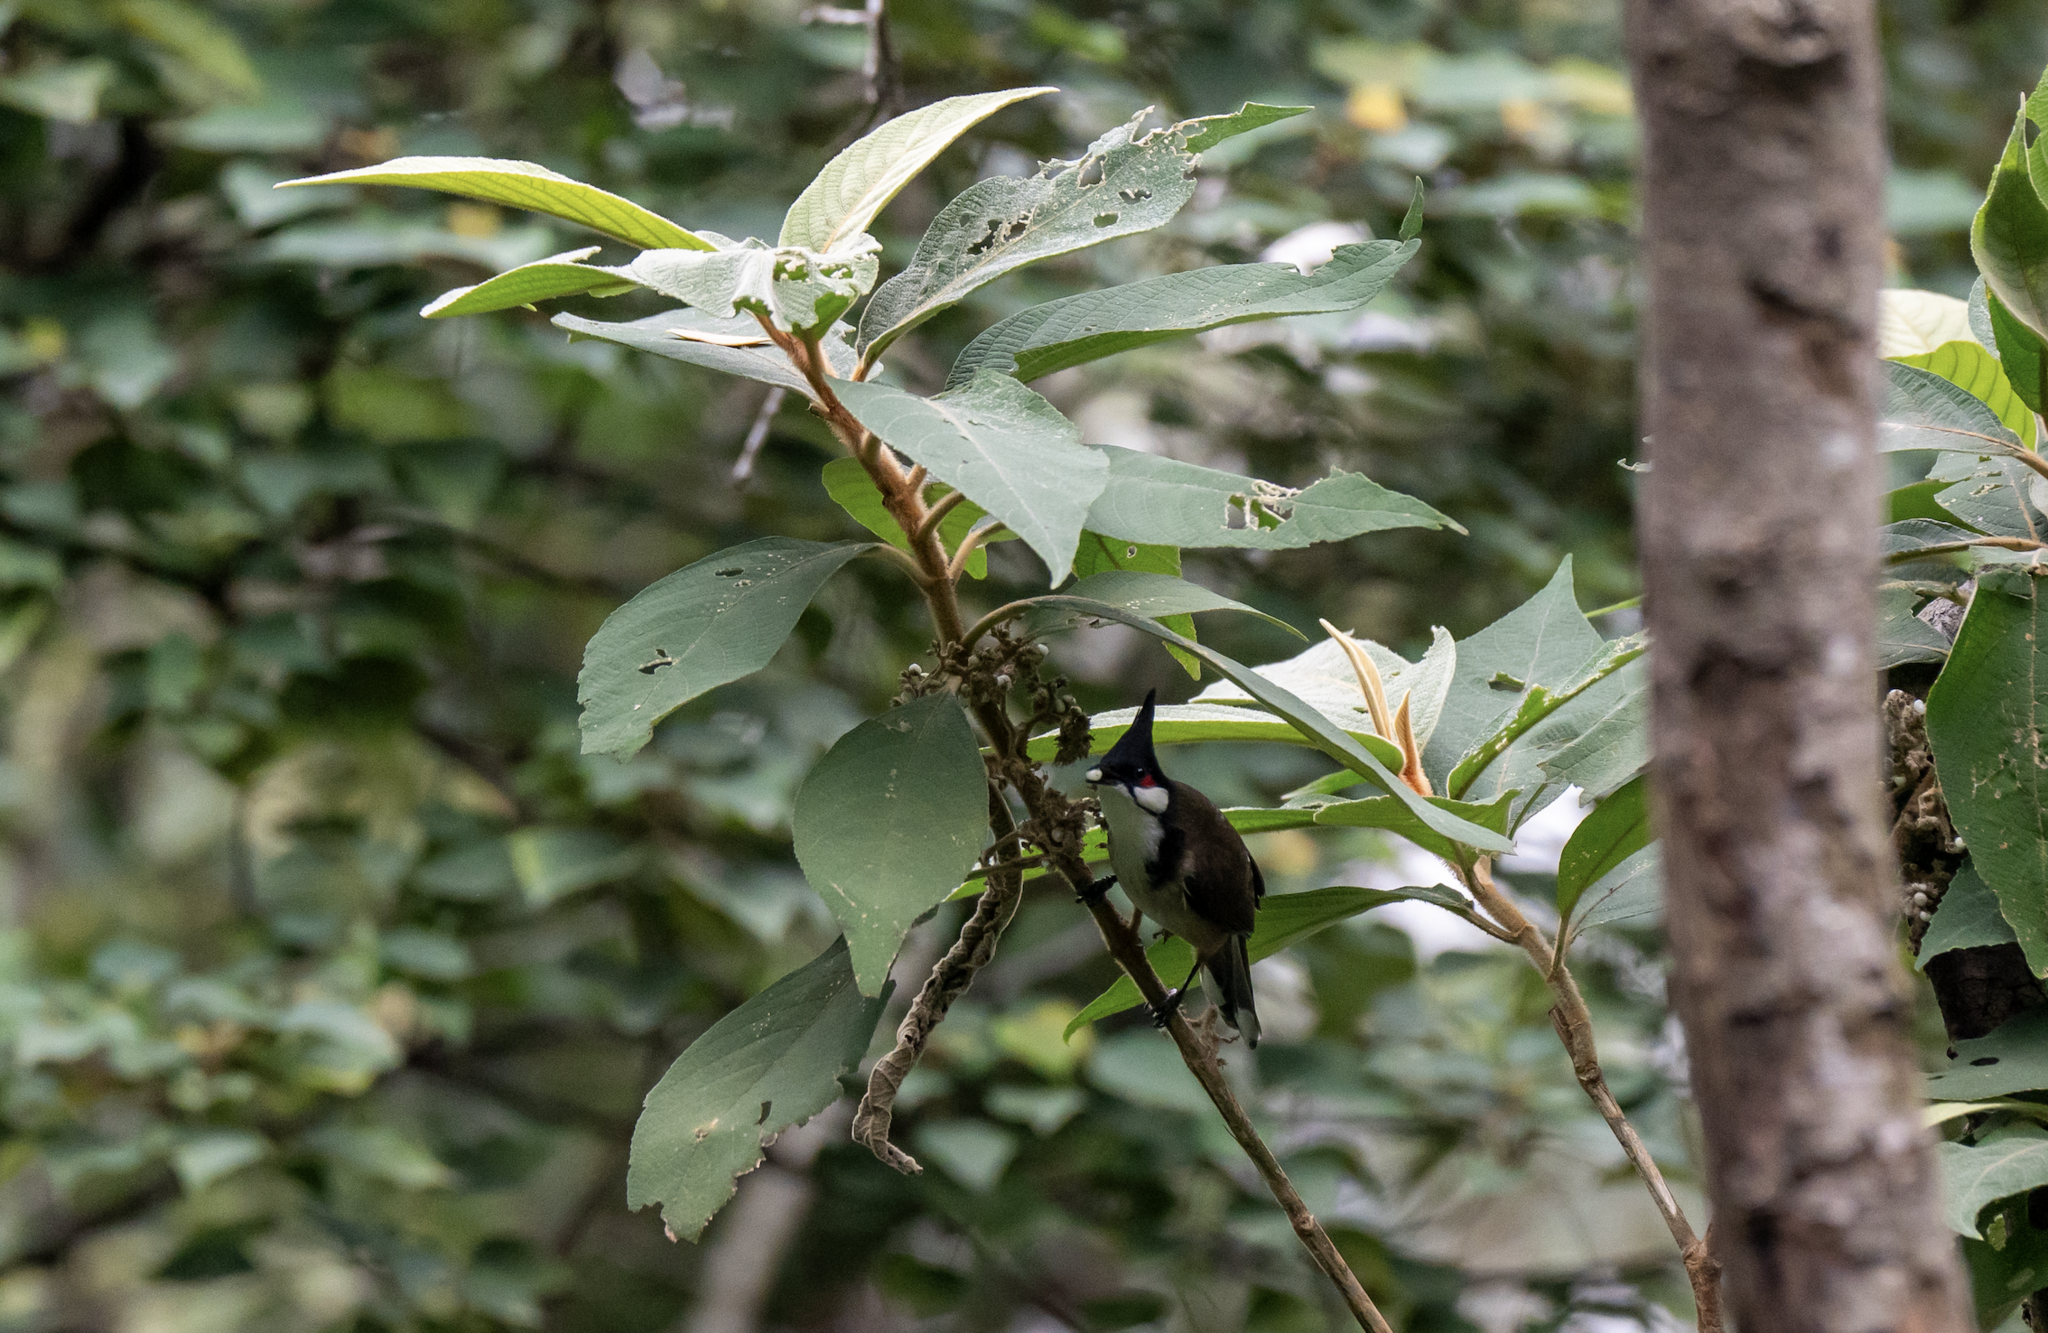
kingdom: Animalia
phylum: Chordata
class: Aves
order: Passeriformes
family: Pycnonotidae
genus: Pycnonotus
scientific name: Pycnonotus jocosus
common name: Red-whiskered bulbul
